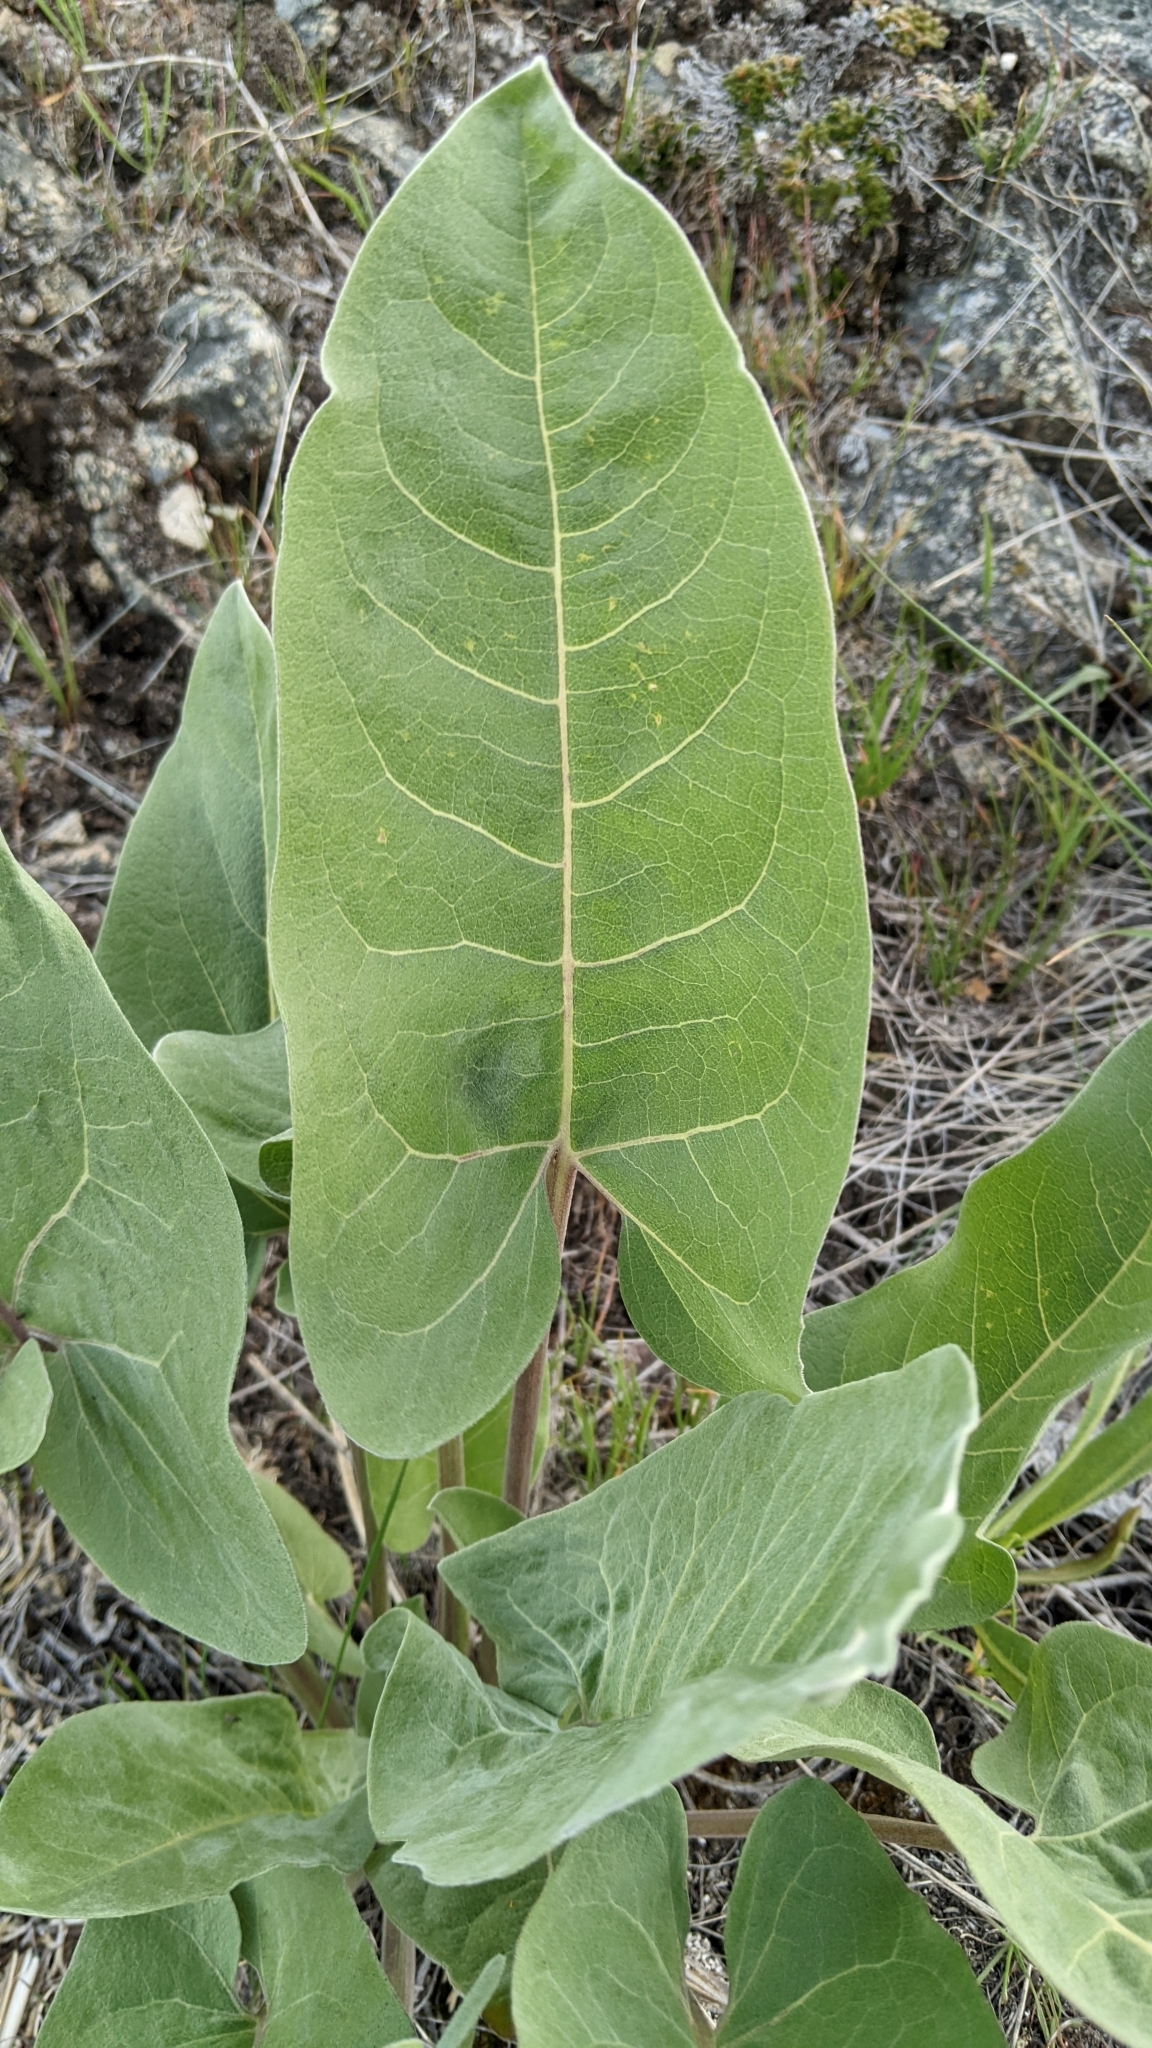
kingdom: Plantae
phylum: Tracheophyta
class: Magnoliopsida
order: Asterales
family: Asteraceae
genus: Wyethia
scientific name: Wyethia sagittata
